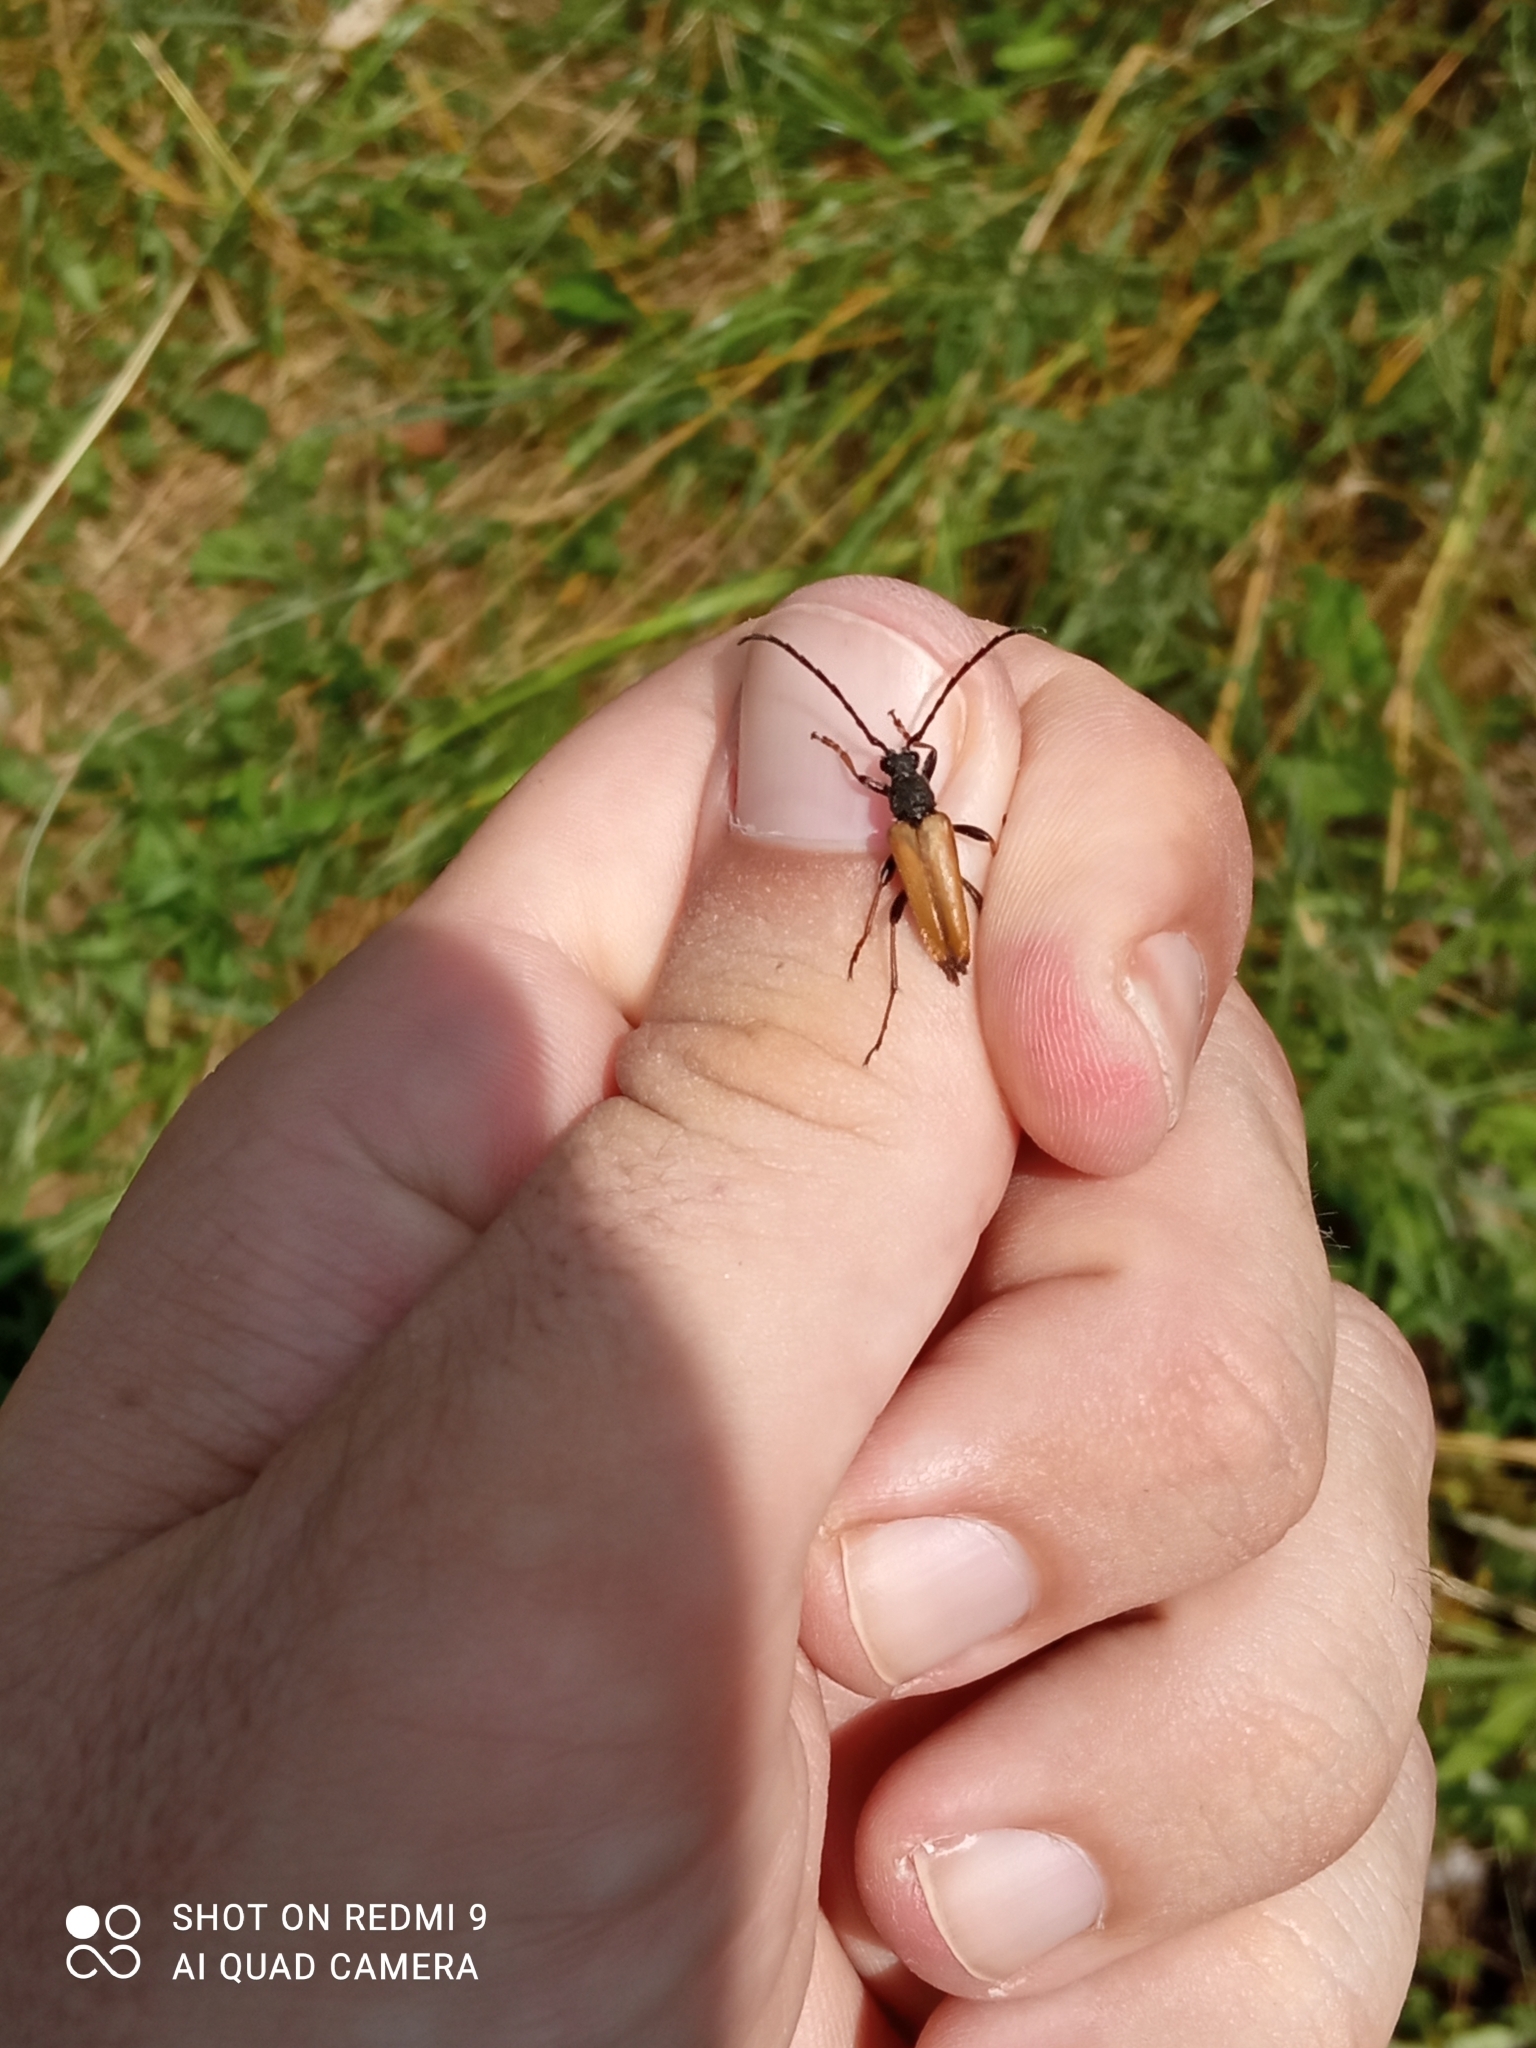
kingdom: Animalia
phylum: Arthropoda
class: Insecta
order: Coleoptera
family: Cerambycidae
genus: Stictoleptura
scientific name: Stictoleptura rubra
